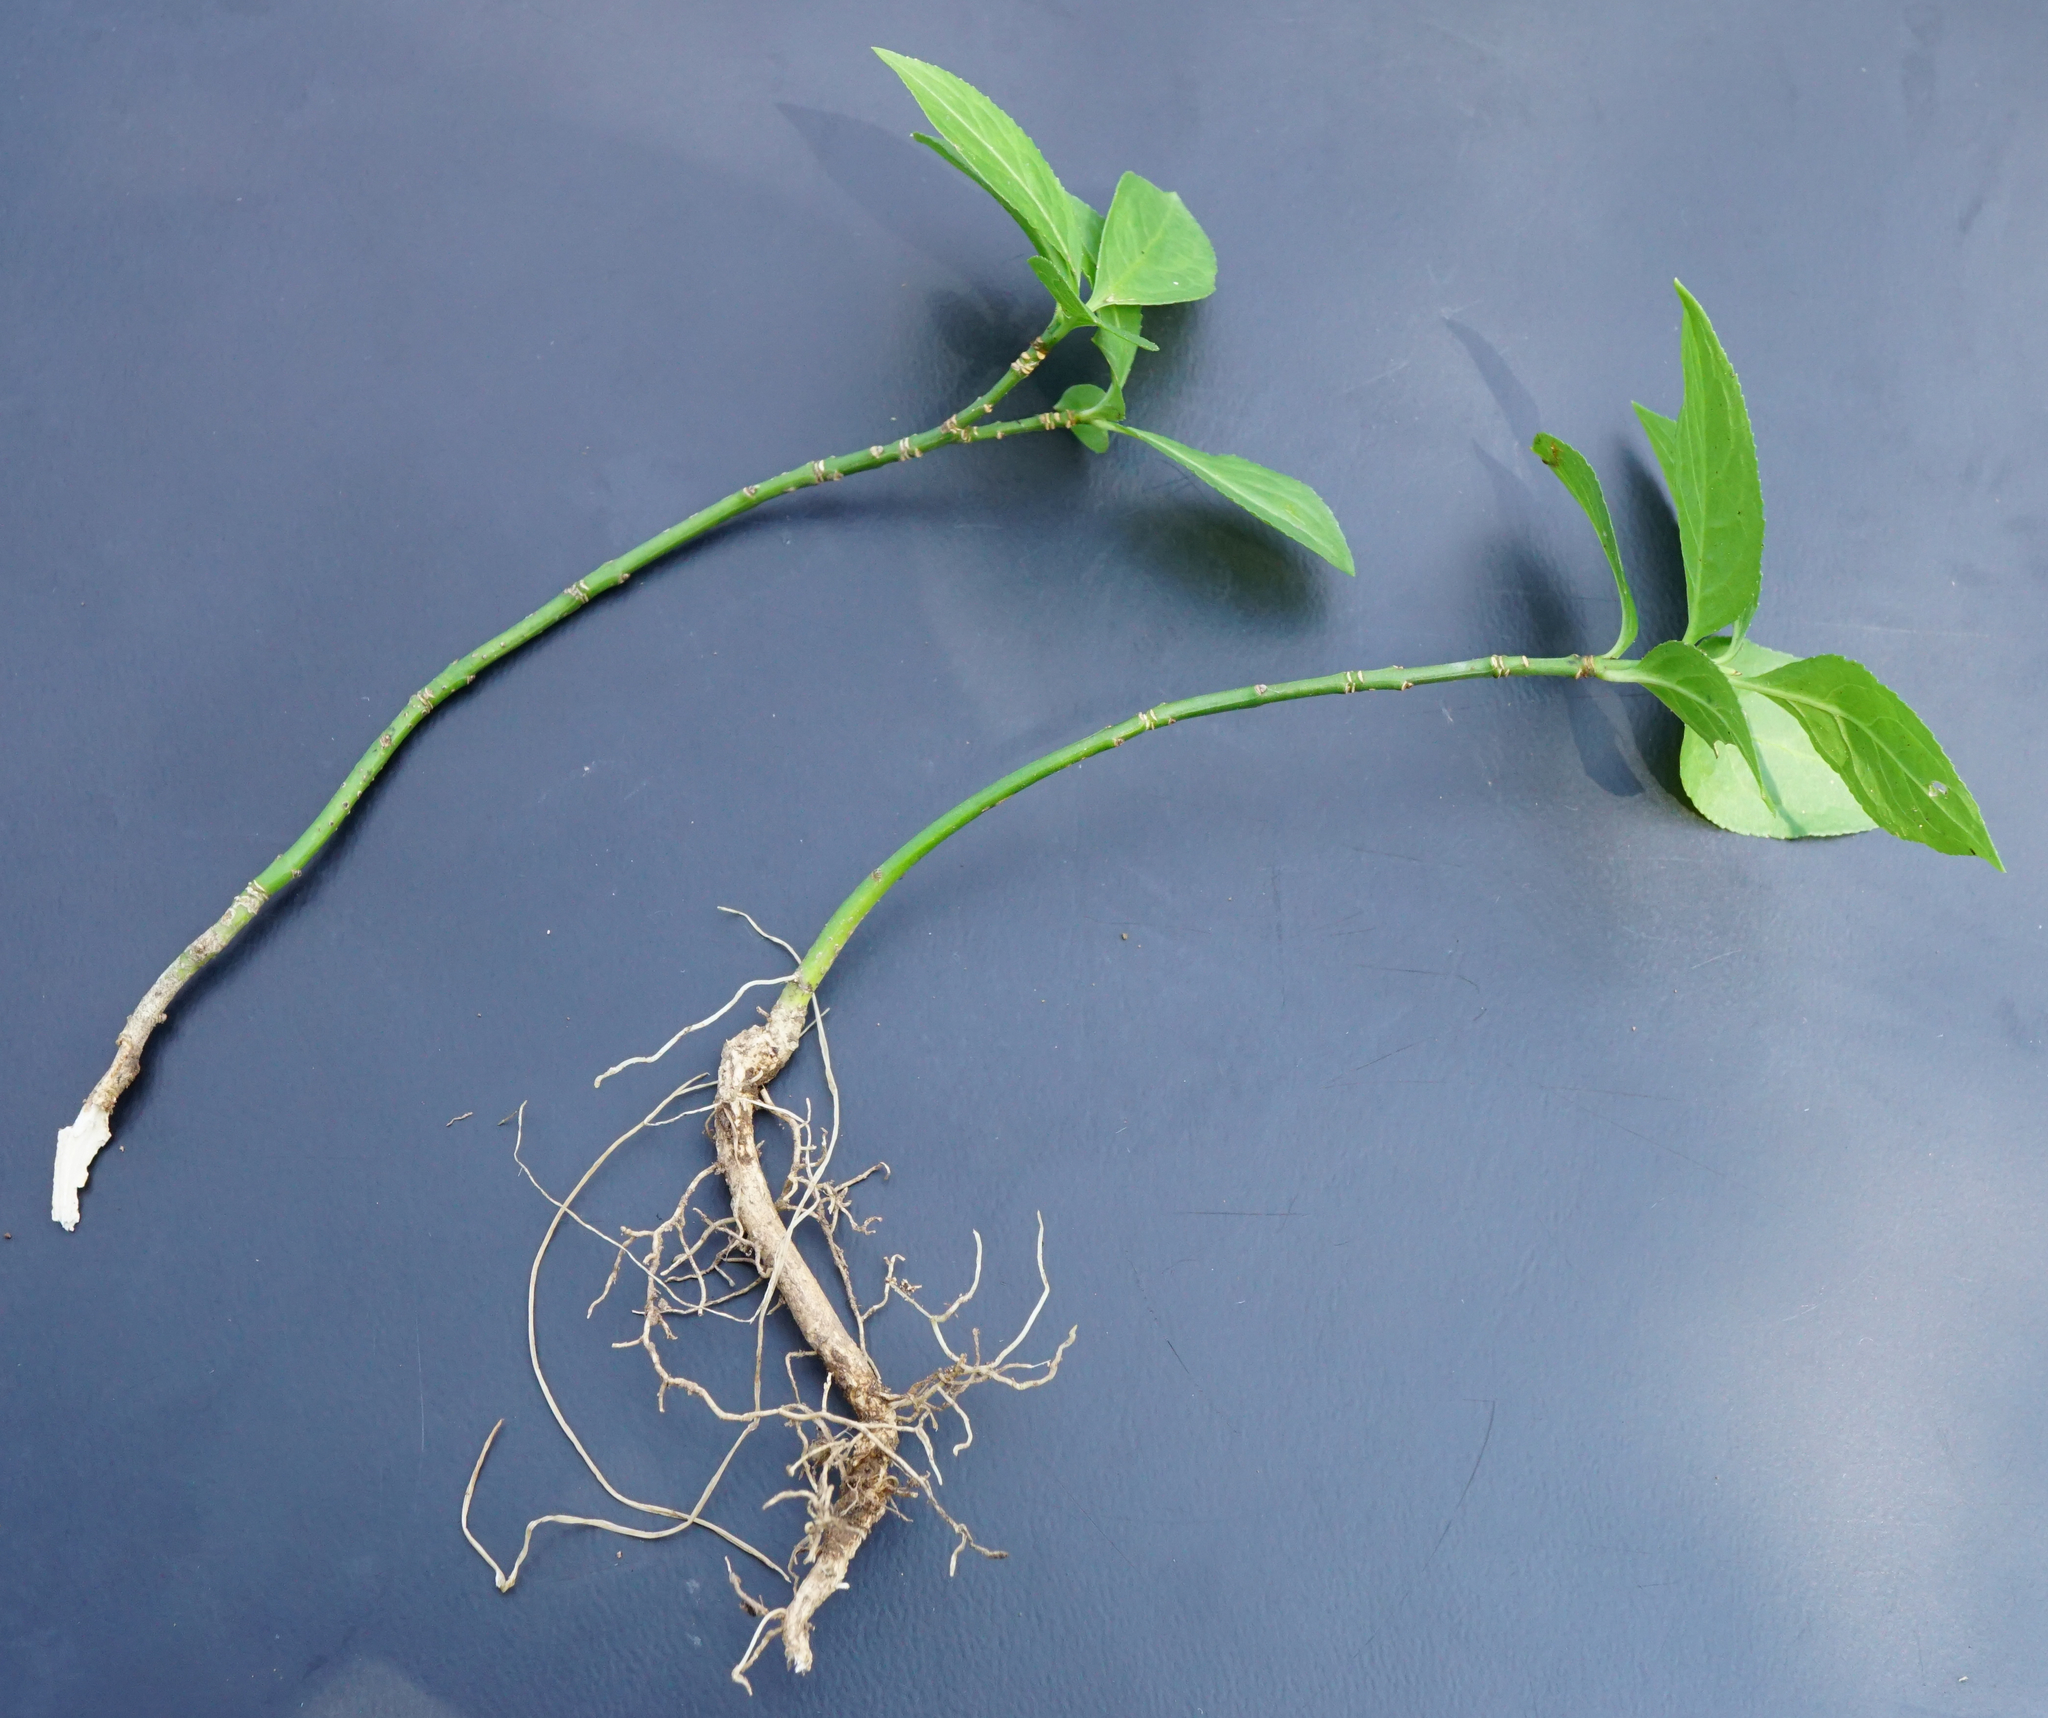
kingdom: Plantae
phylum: Tracheophyta
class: Magnoliopsida
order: Celastrales
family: Celastraceae
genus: Euonymus
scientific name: Euonymus europaeus
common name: Spindle
